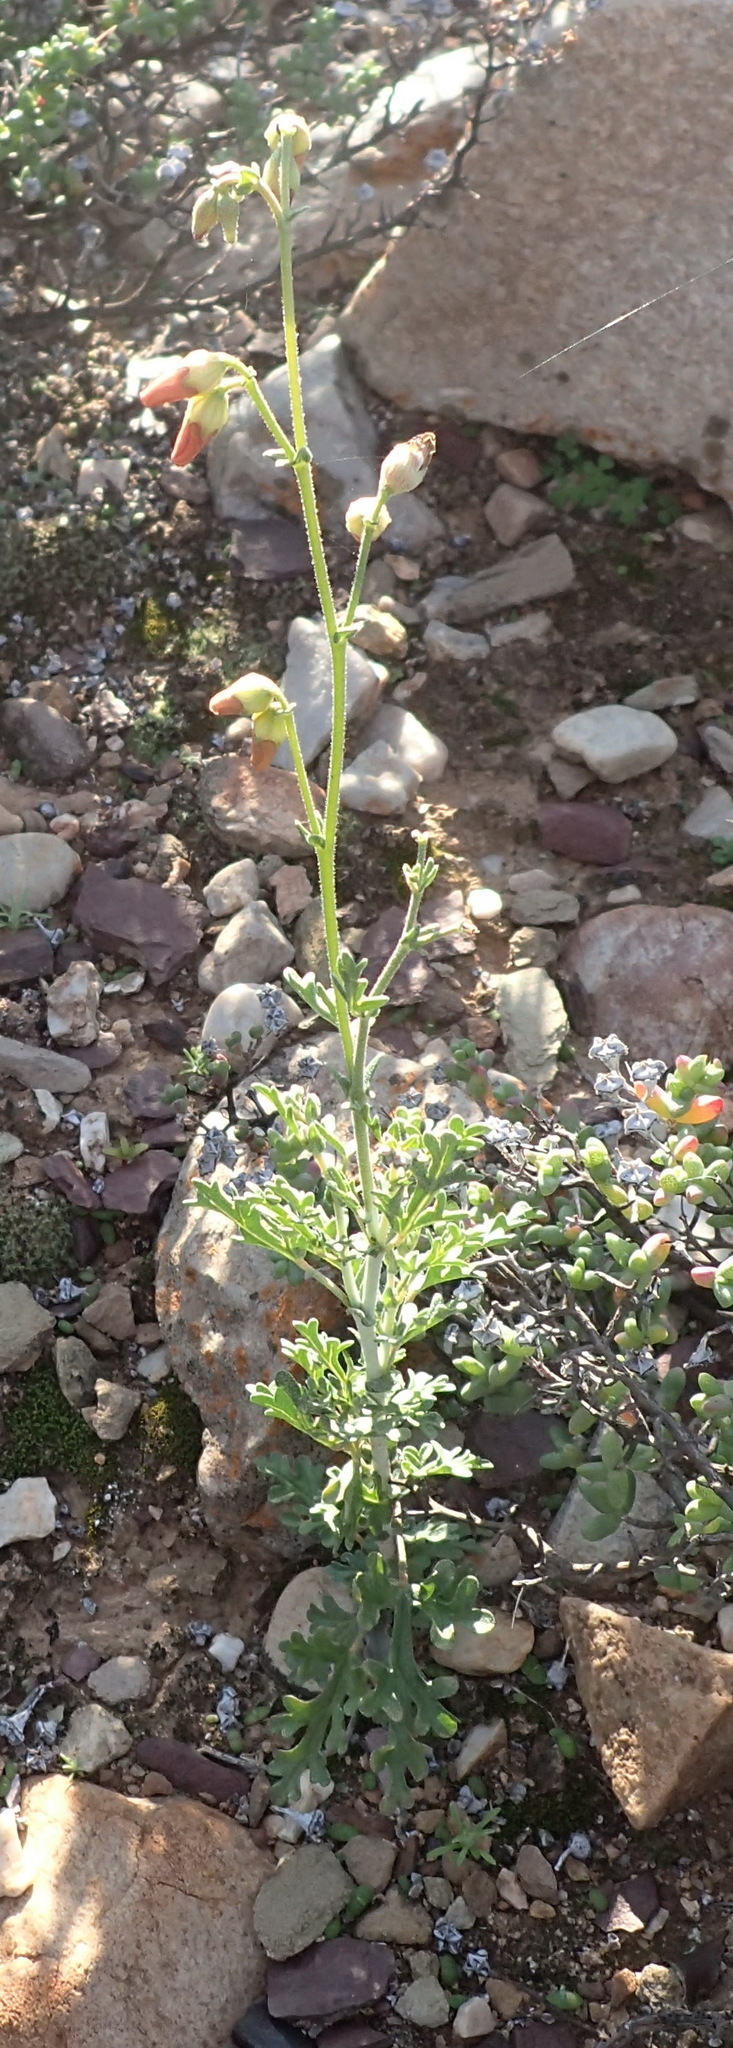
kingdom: Plantae
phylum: Tracheophyta
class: Magnoliopsida
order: Malvales
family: Malvaceae
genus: Hermannia
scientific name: Hermannia pulverata
